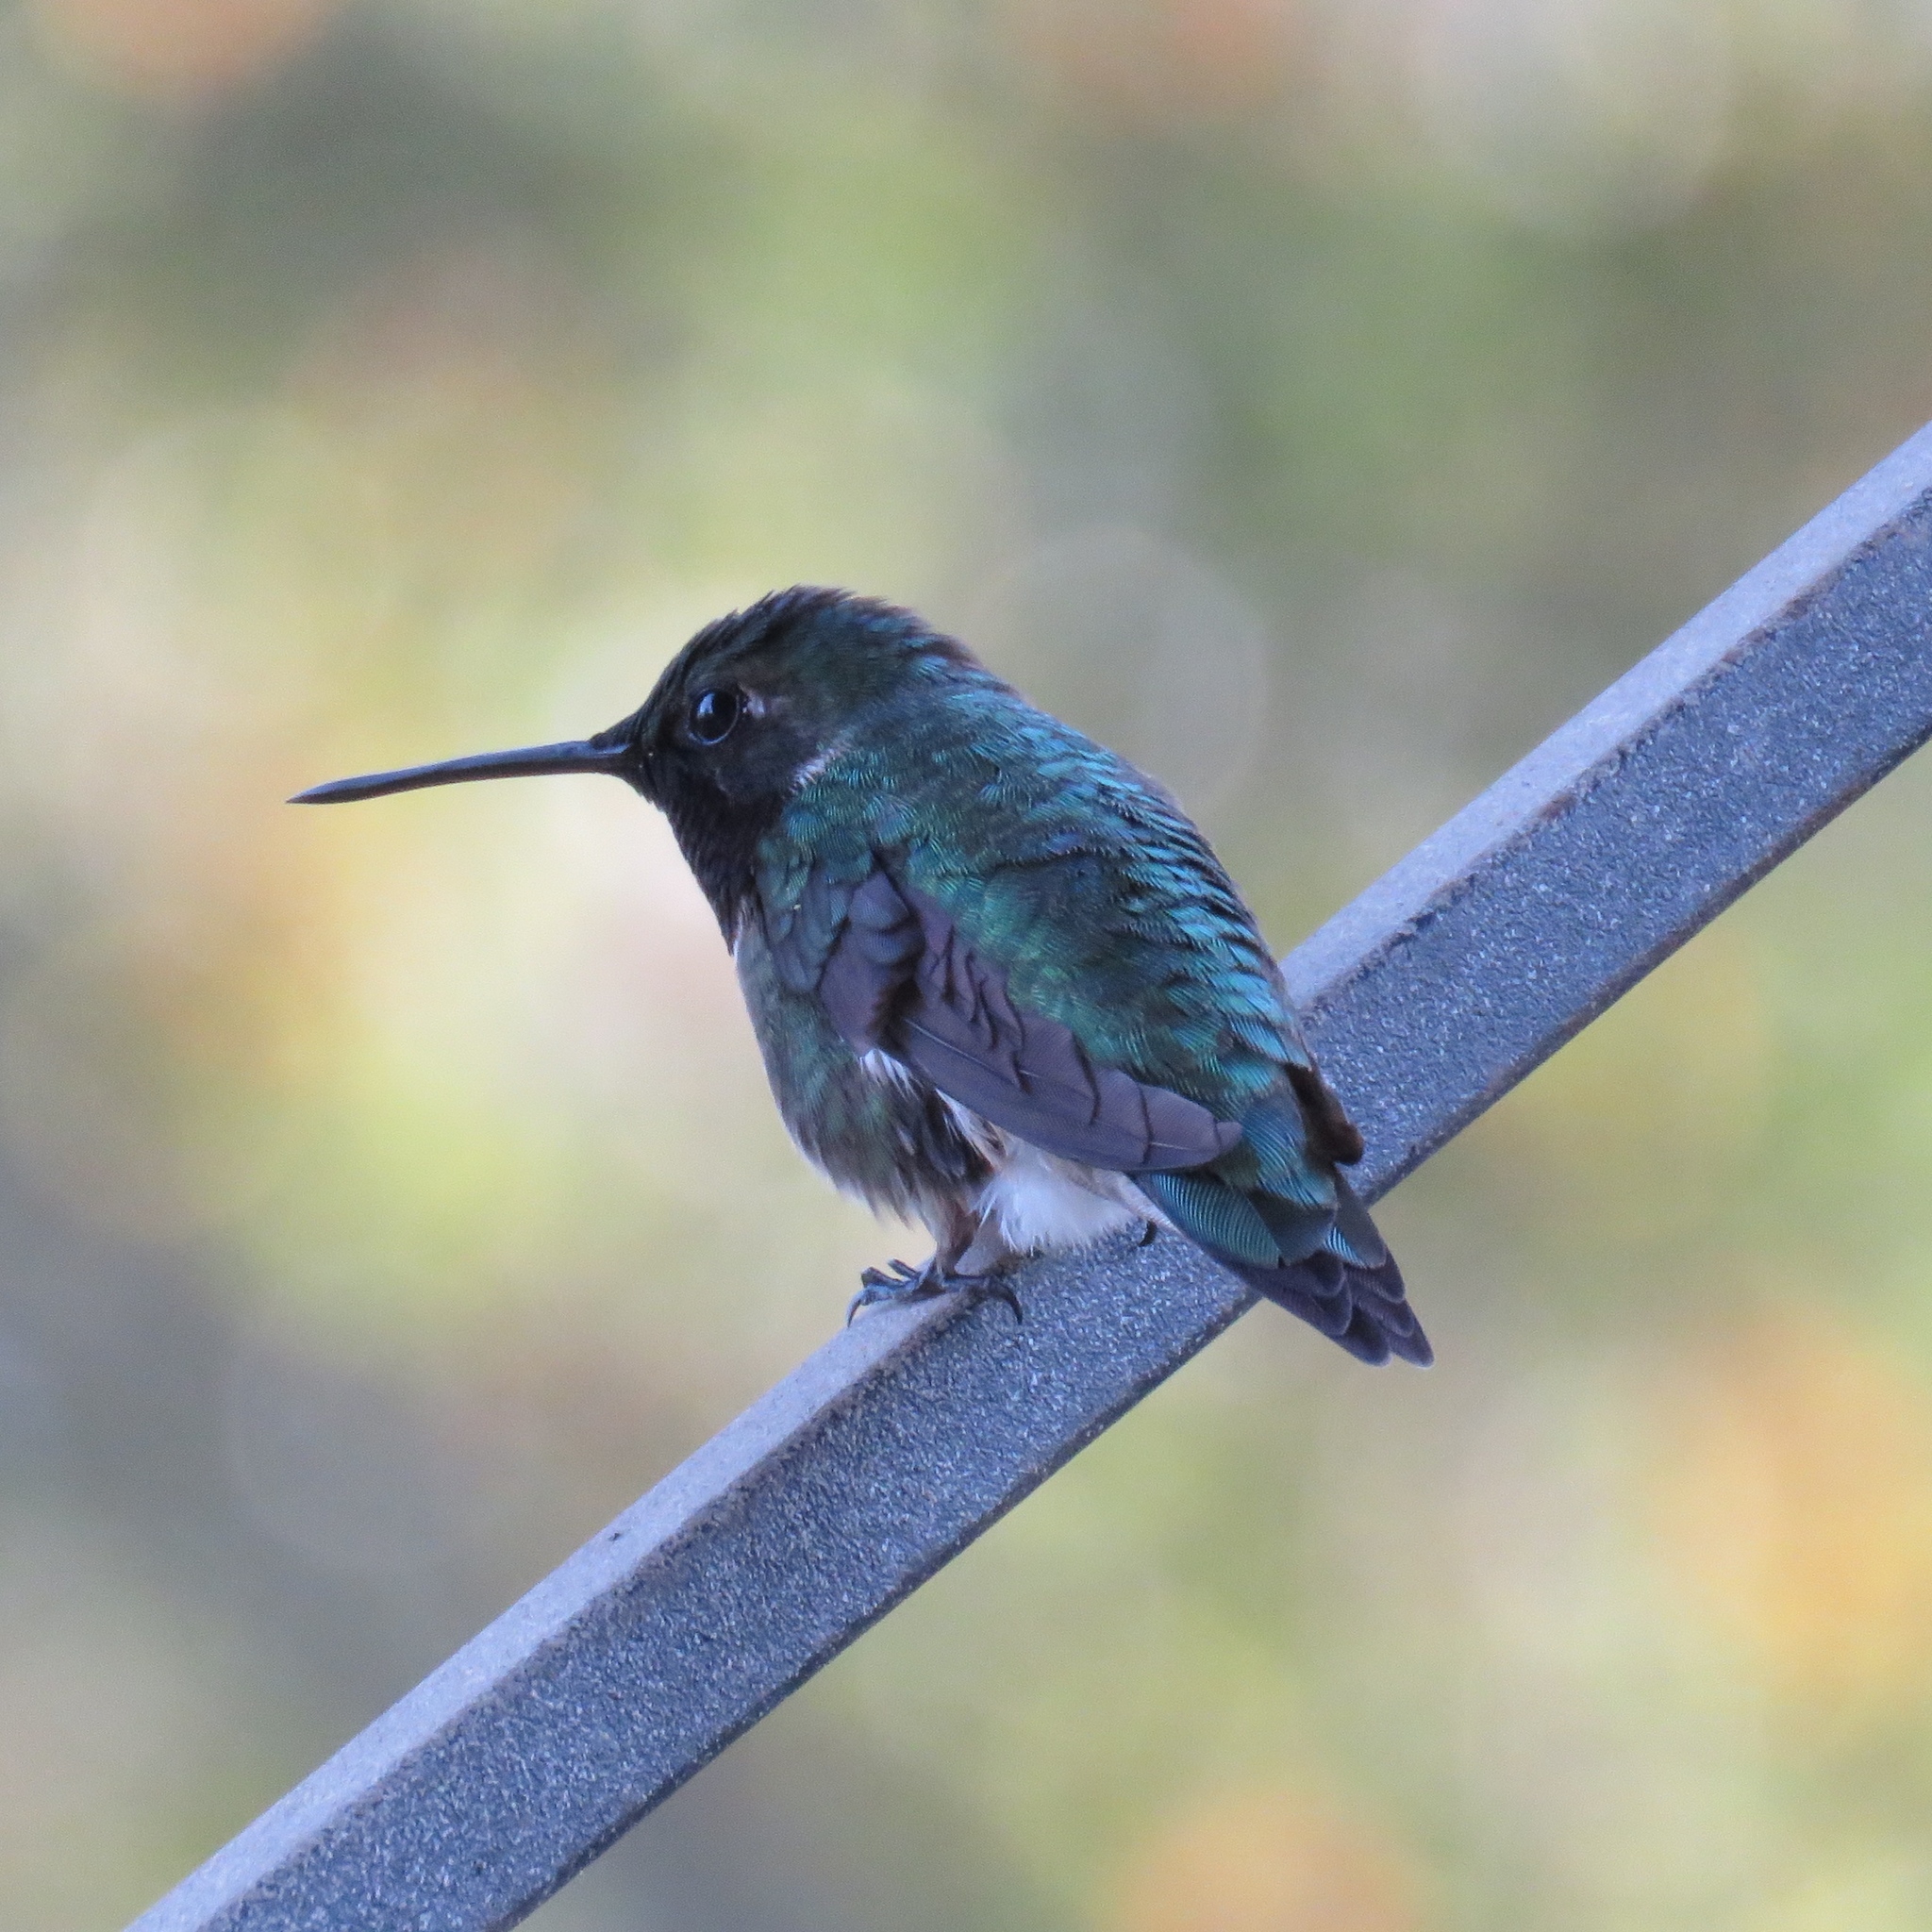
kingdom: Animalia
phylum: Chordata
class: Aves
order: Apodiformes
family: Trochilidae
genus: Archilochus
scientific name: Archilochus colubris
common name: Ruby-throated hummingbird
